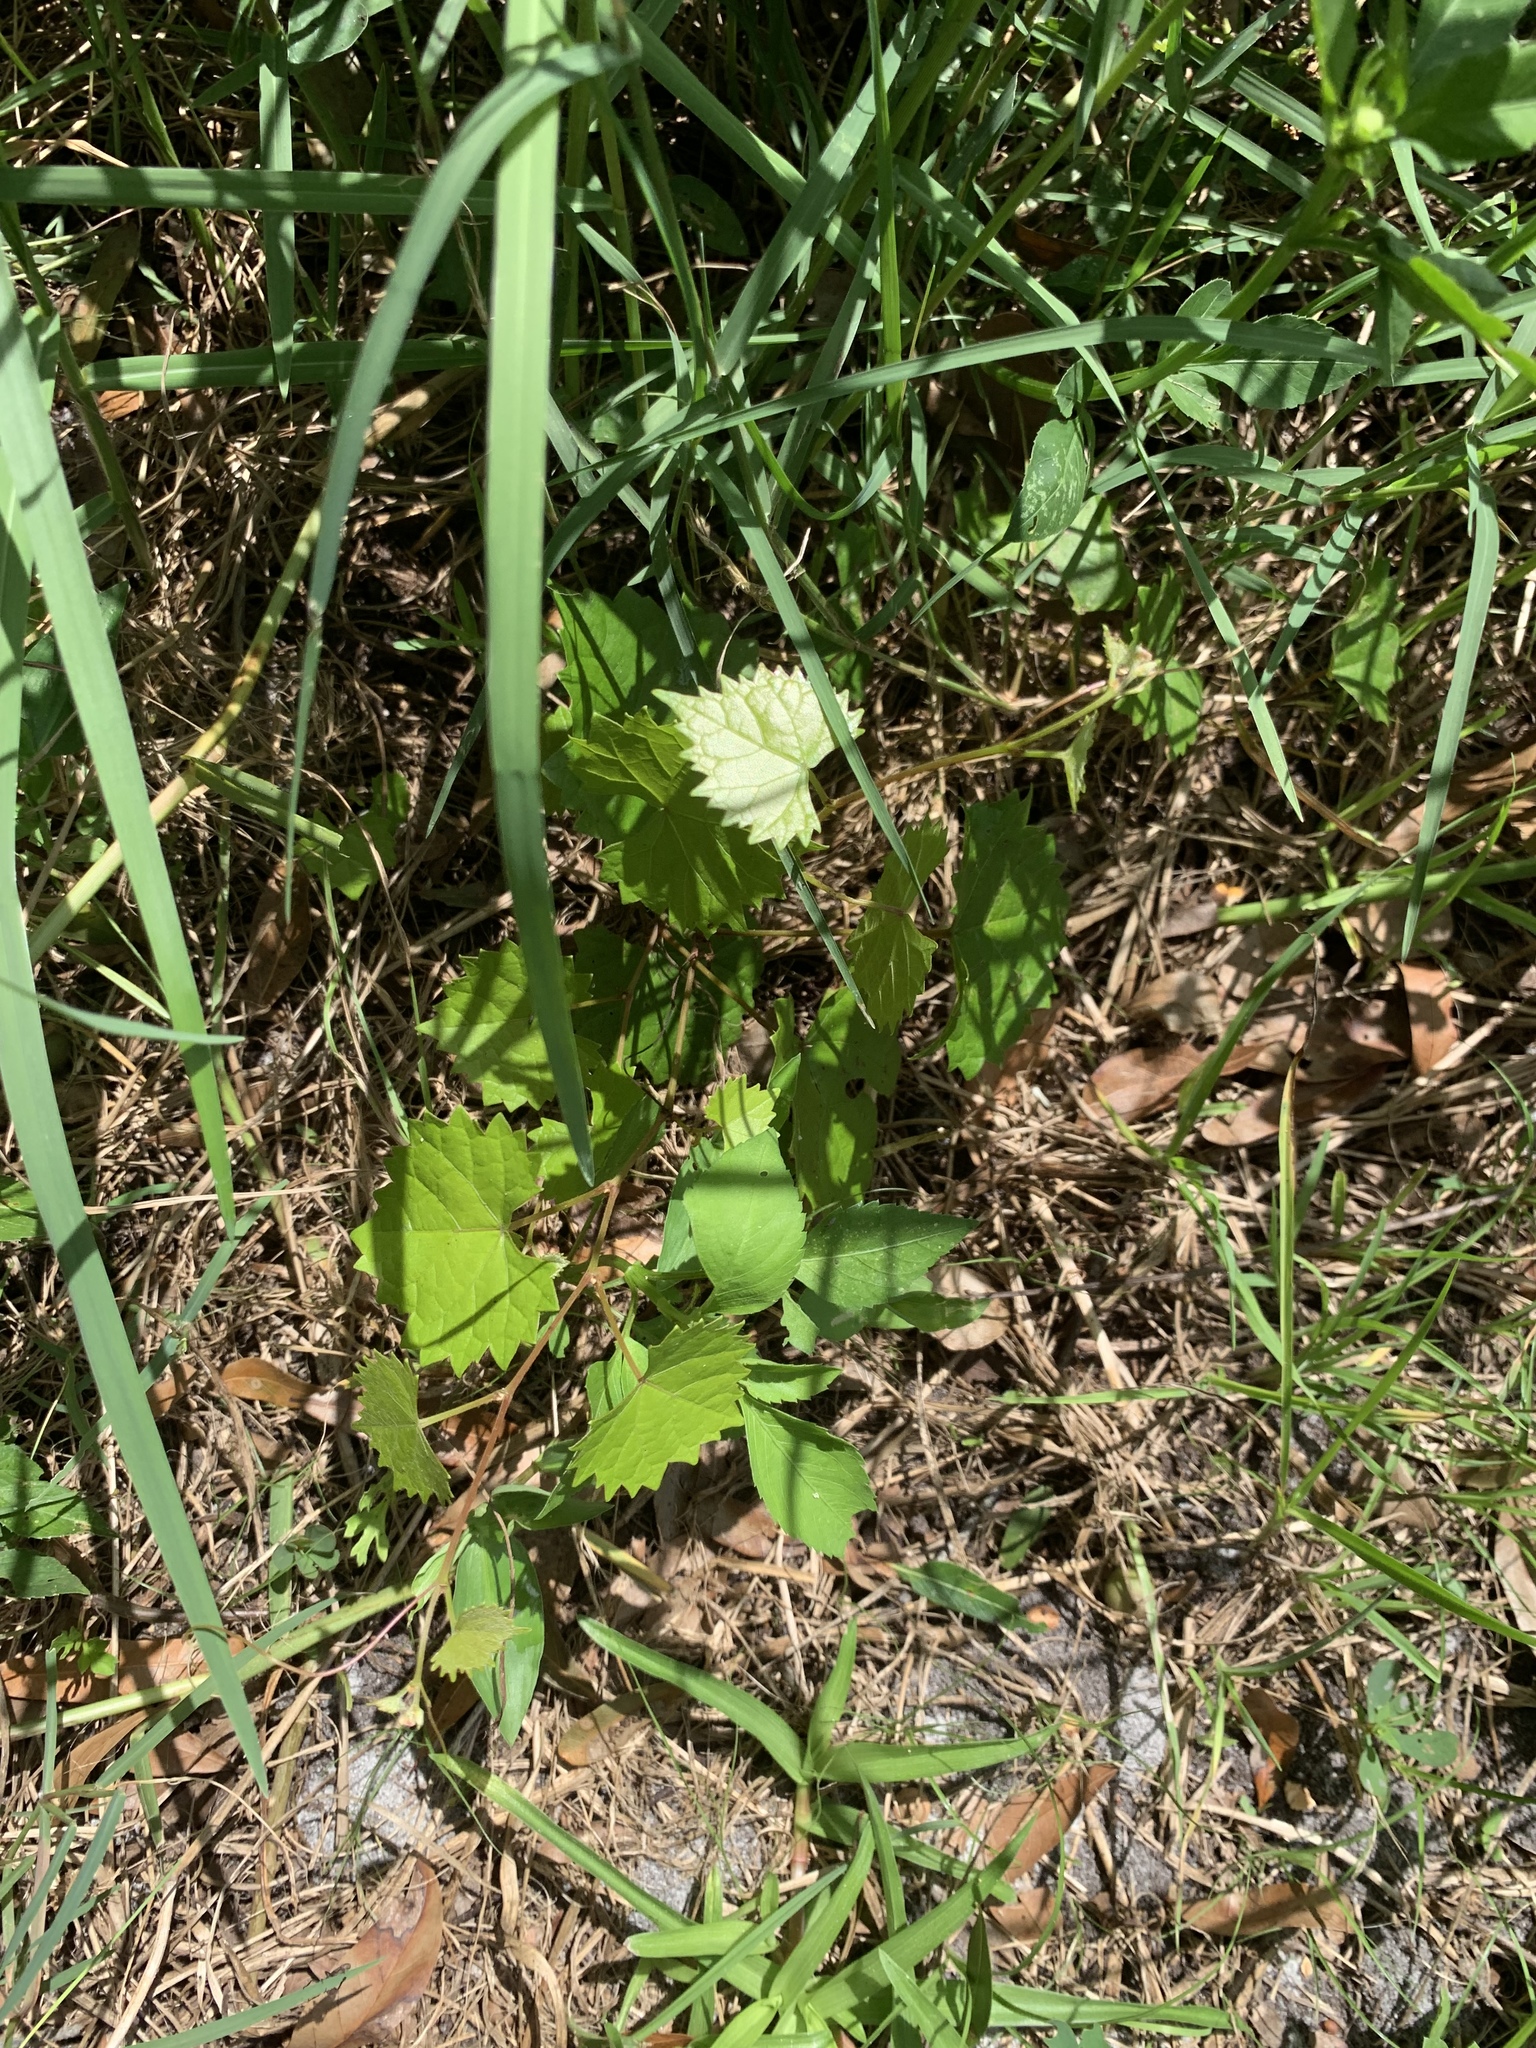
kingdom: Plantae
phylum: Tracheophyta
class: Magnoliopsida
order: Vitales
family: Vitaceae
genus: Vitis
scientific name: Vitis rotundifolia
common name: Muscadine grape
